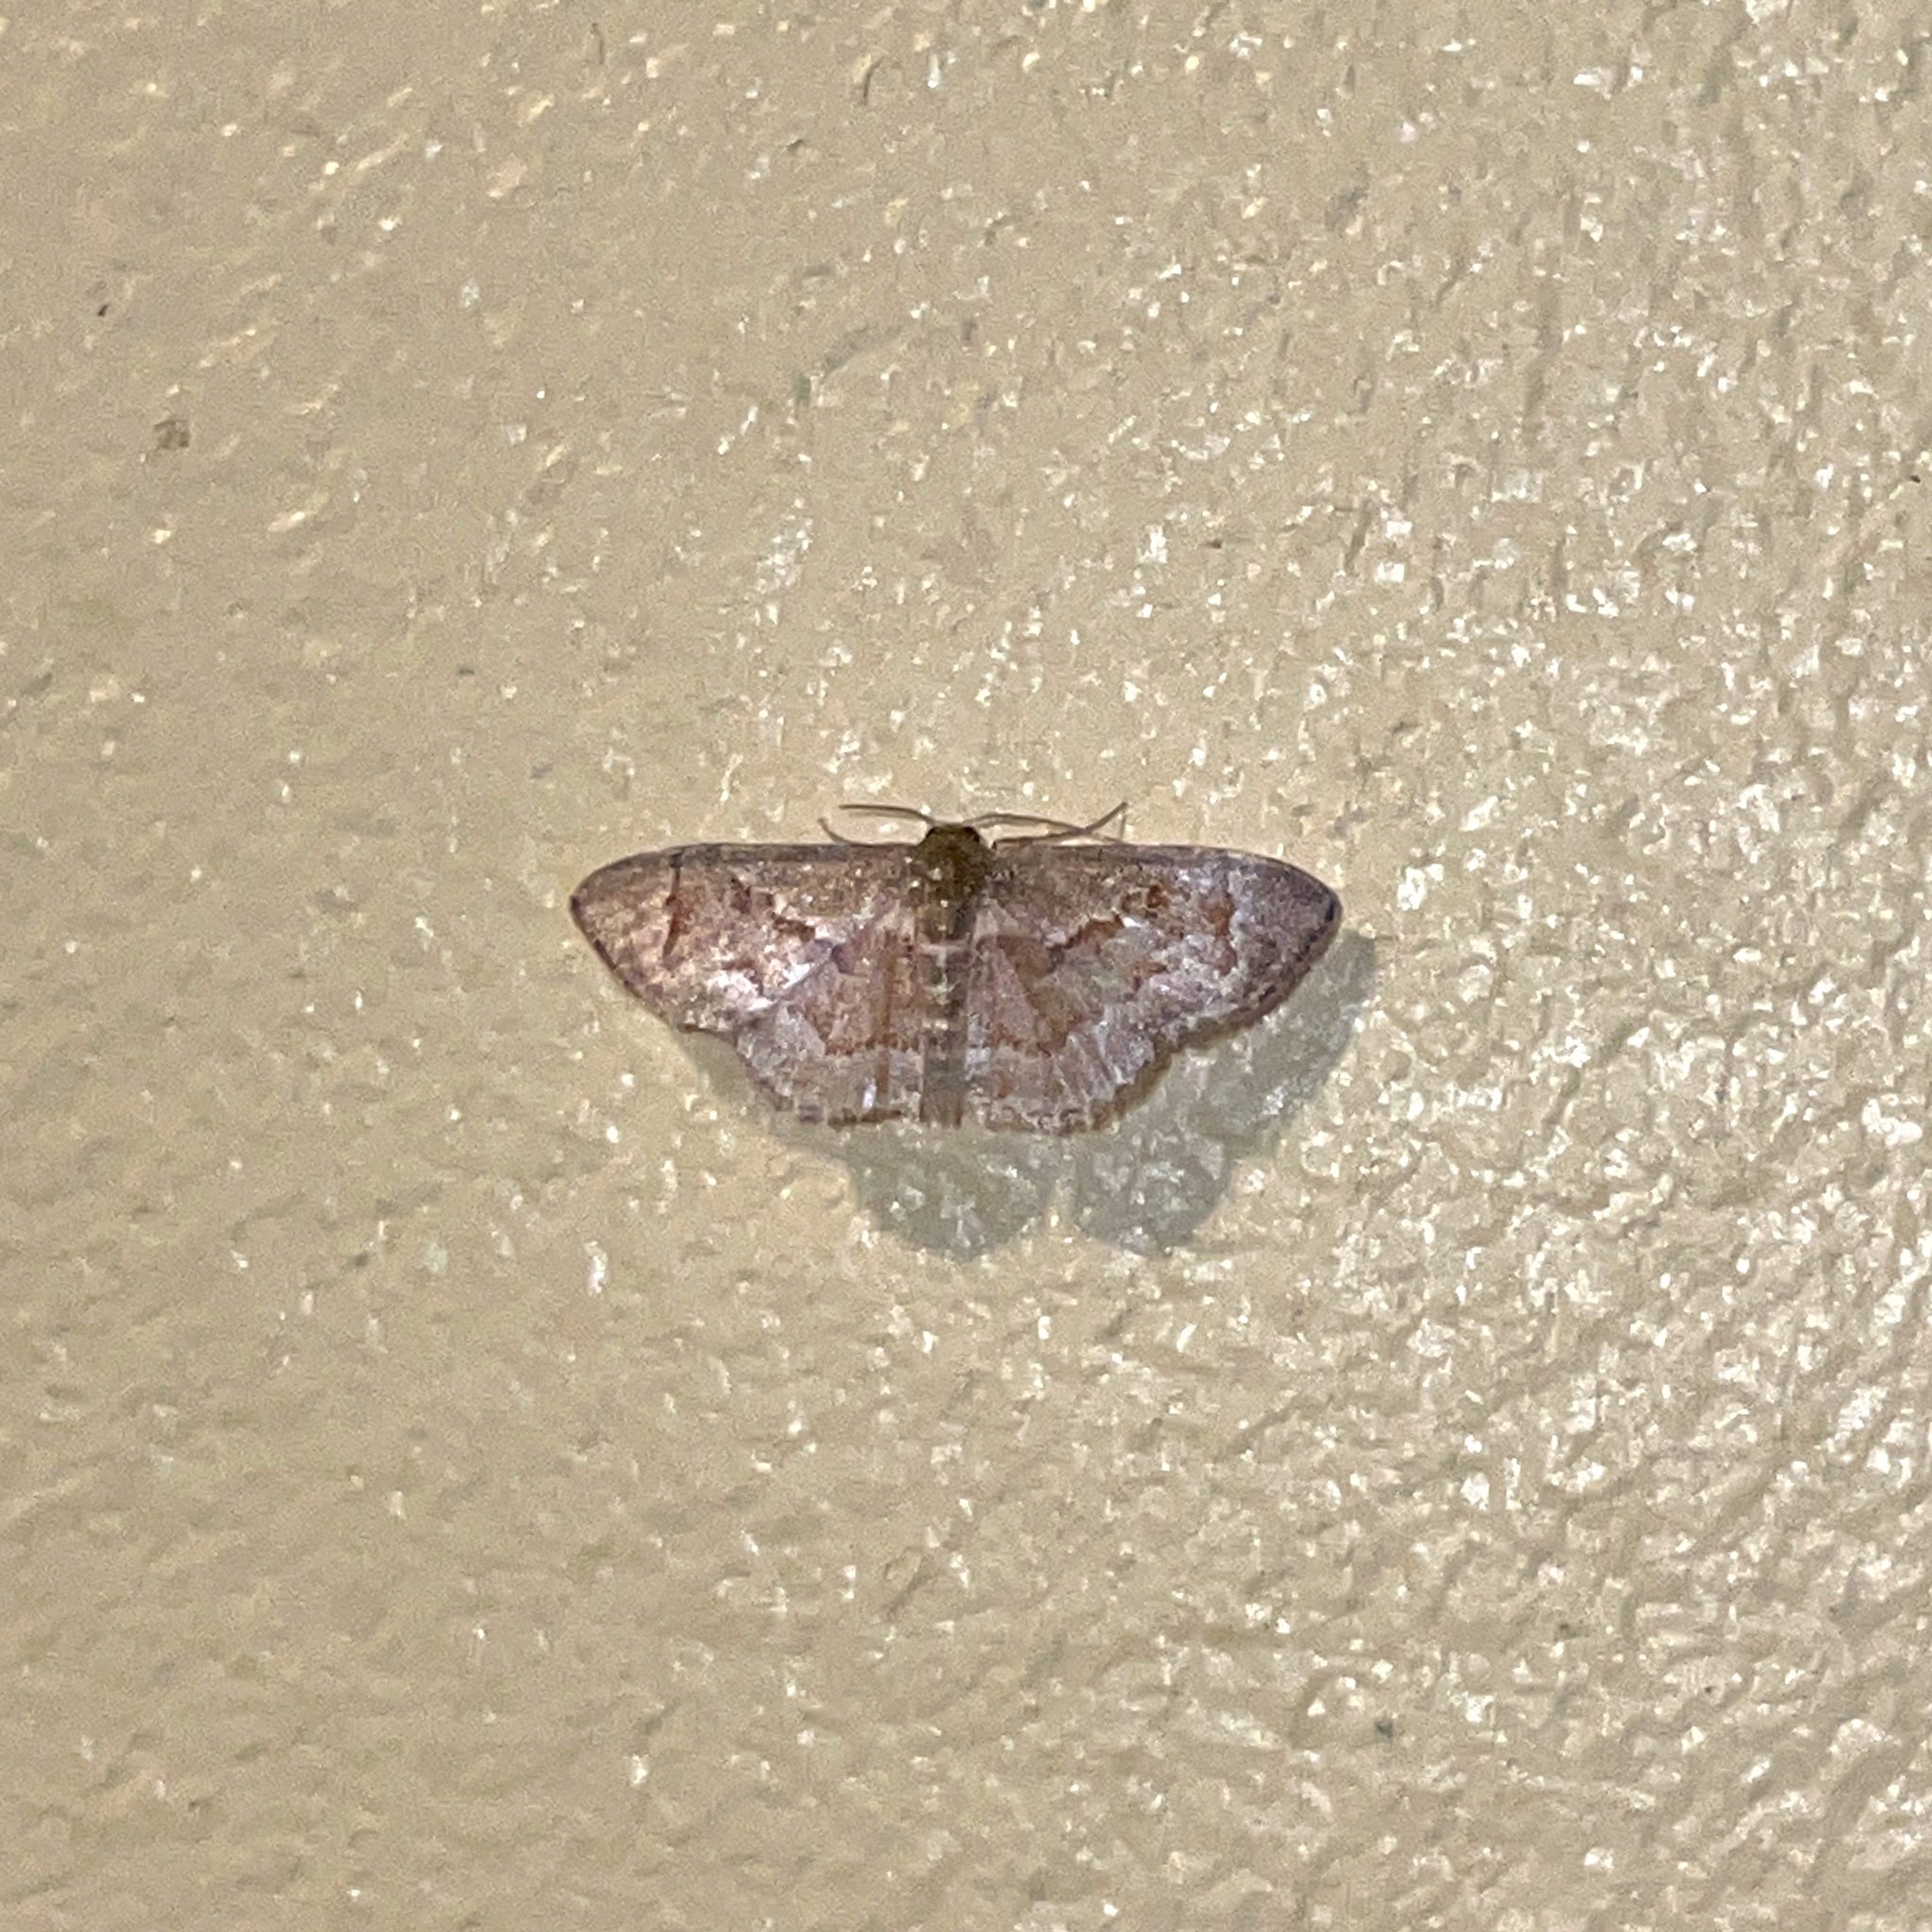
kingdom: Animalia
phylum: Arthropoda
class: Insecta
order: Lepidoptera
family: Geometridae
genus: Leptostales
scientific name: Leptostales adela
